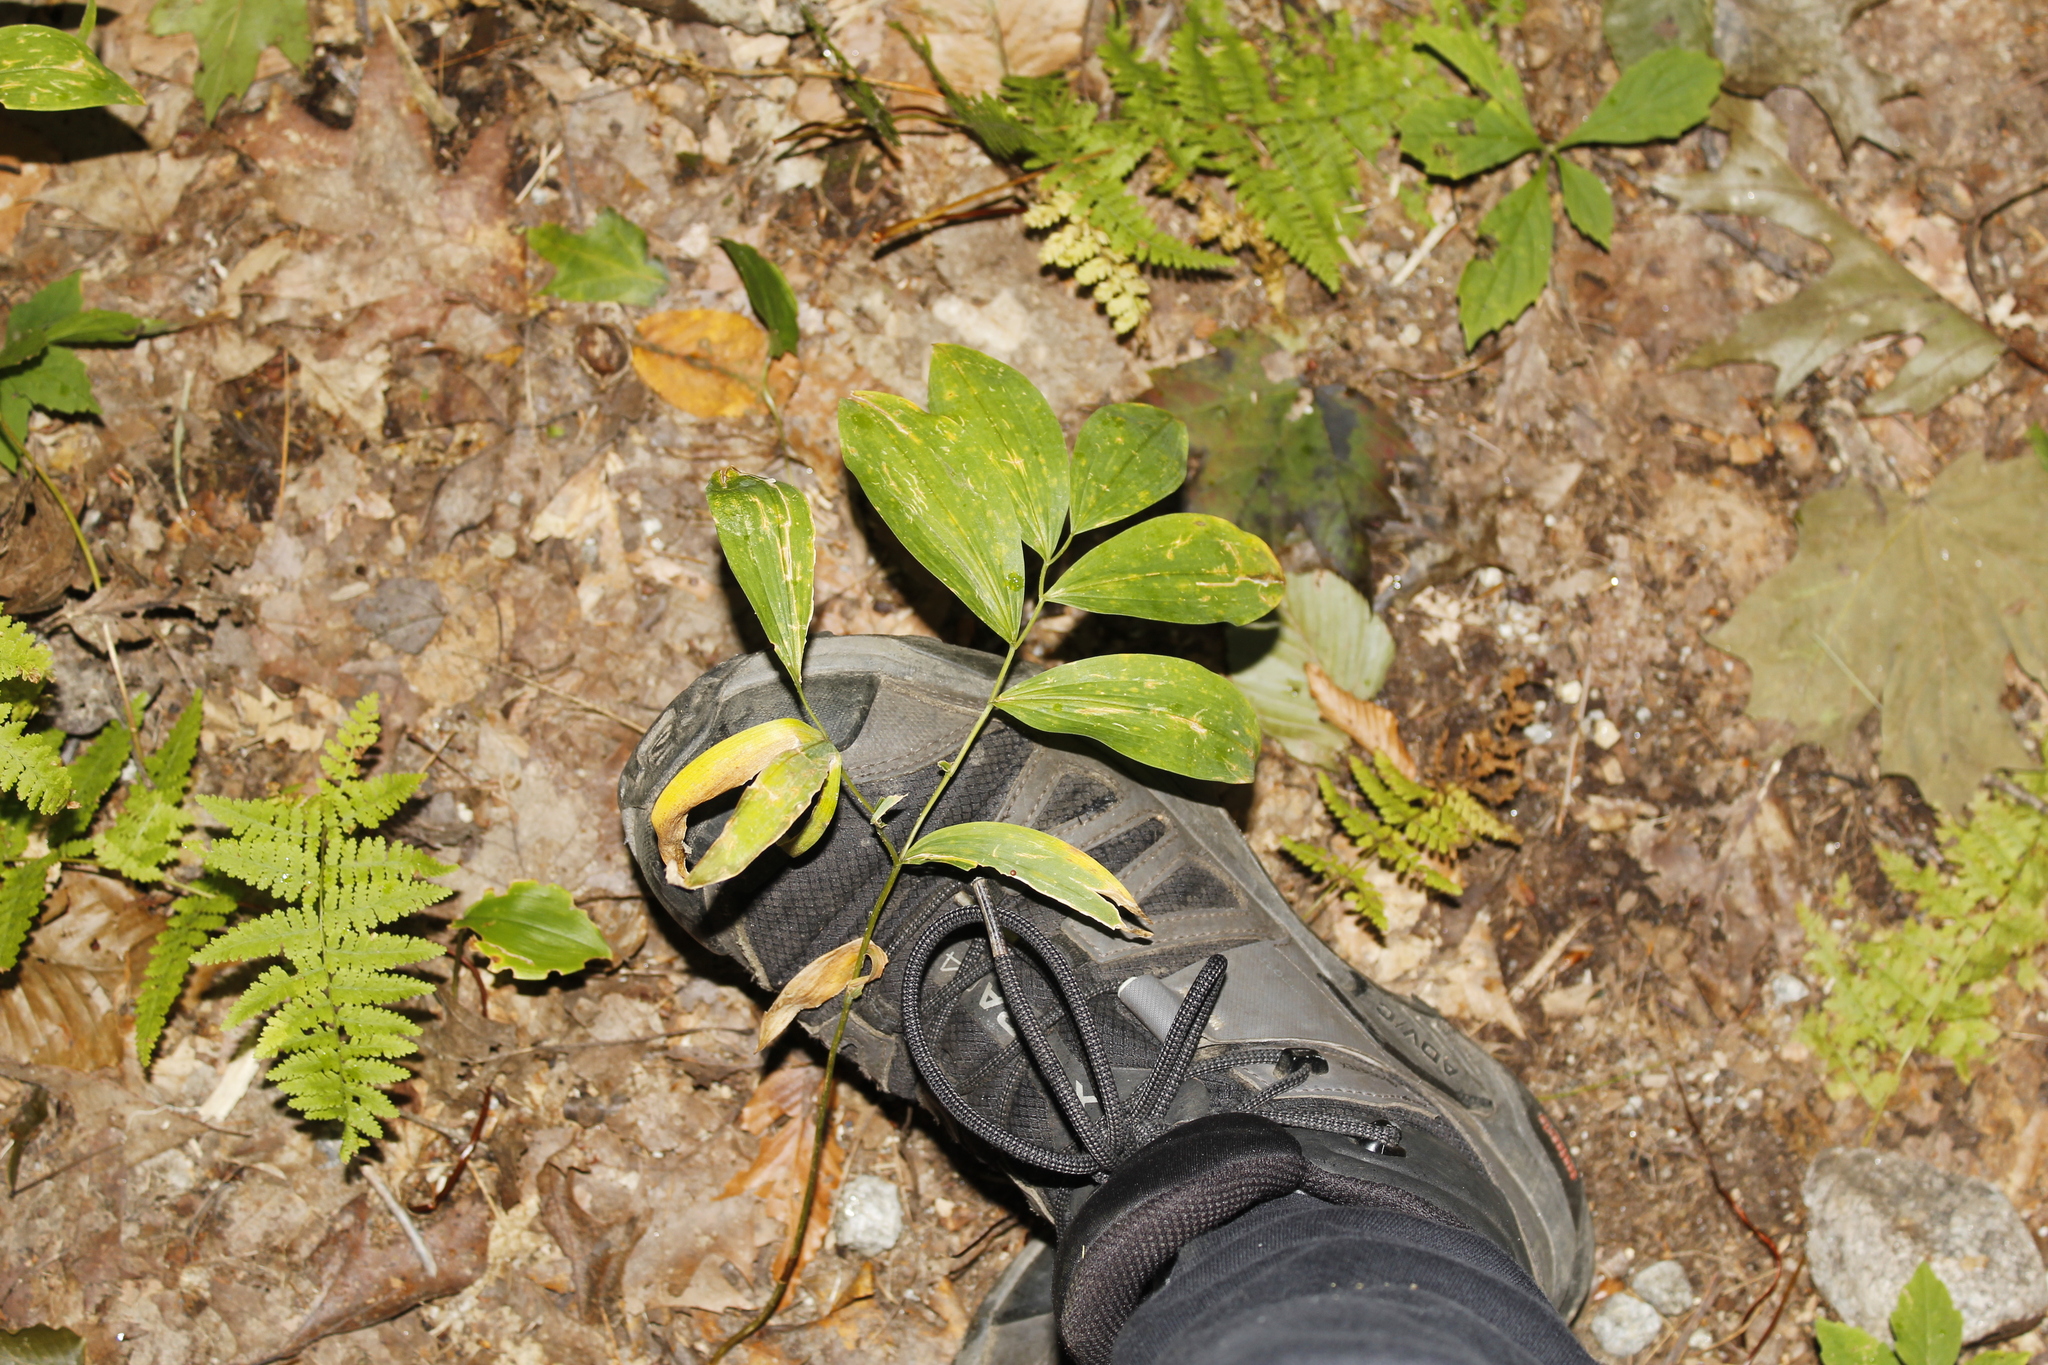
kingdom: Plantae
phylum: Tracheophyta
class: Liliopsida
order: Liliales
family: Colchicaceae
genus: Uvularia
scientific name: Uvularia sessilifolia
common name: Straw-lily
